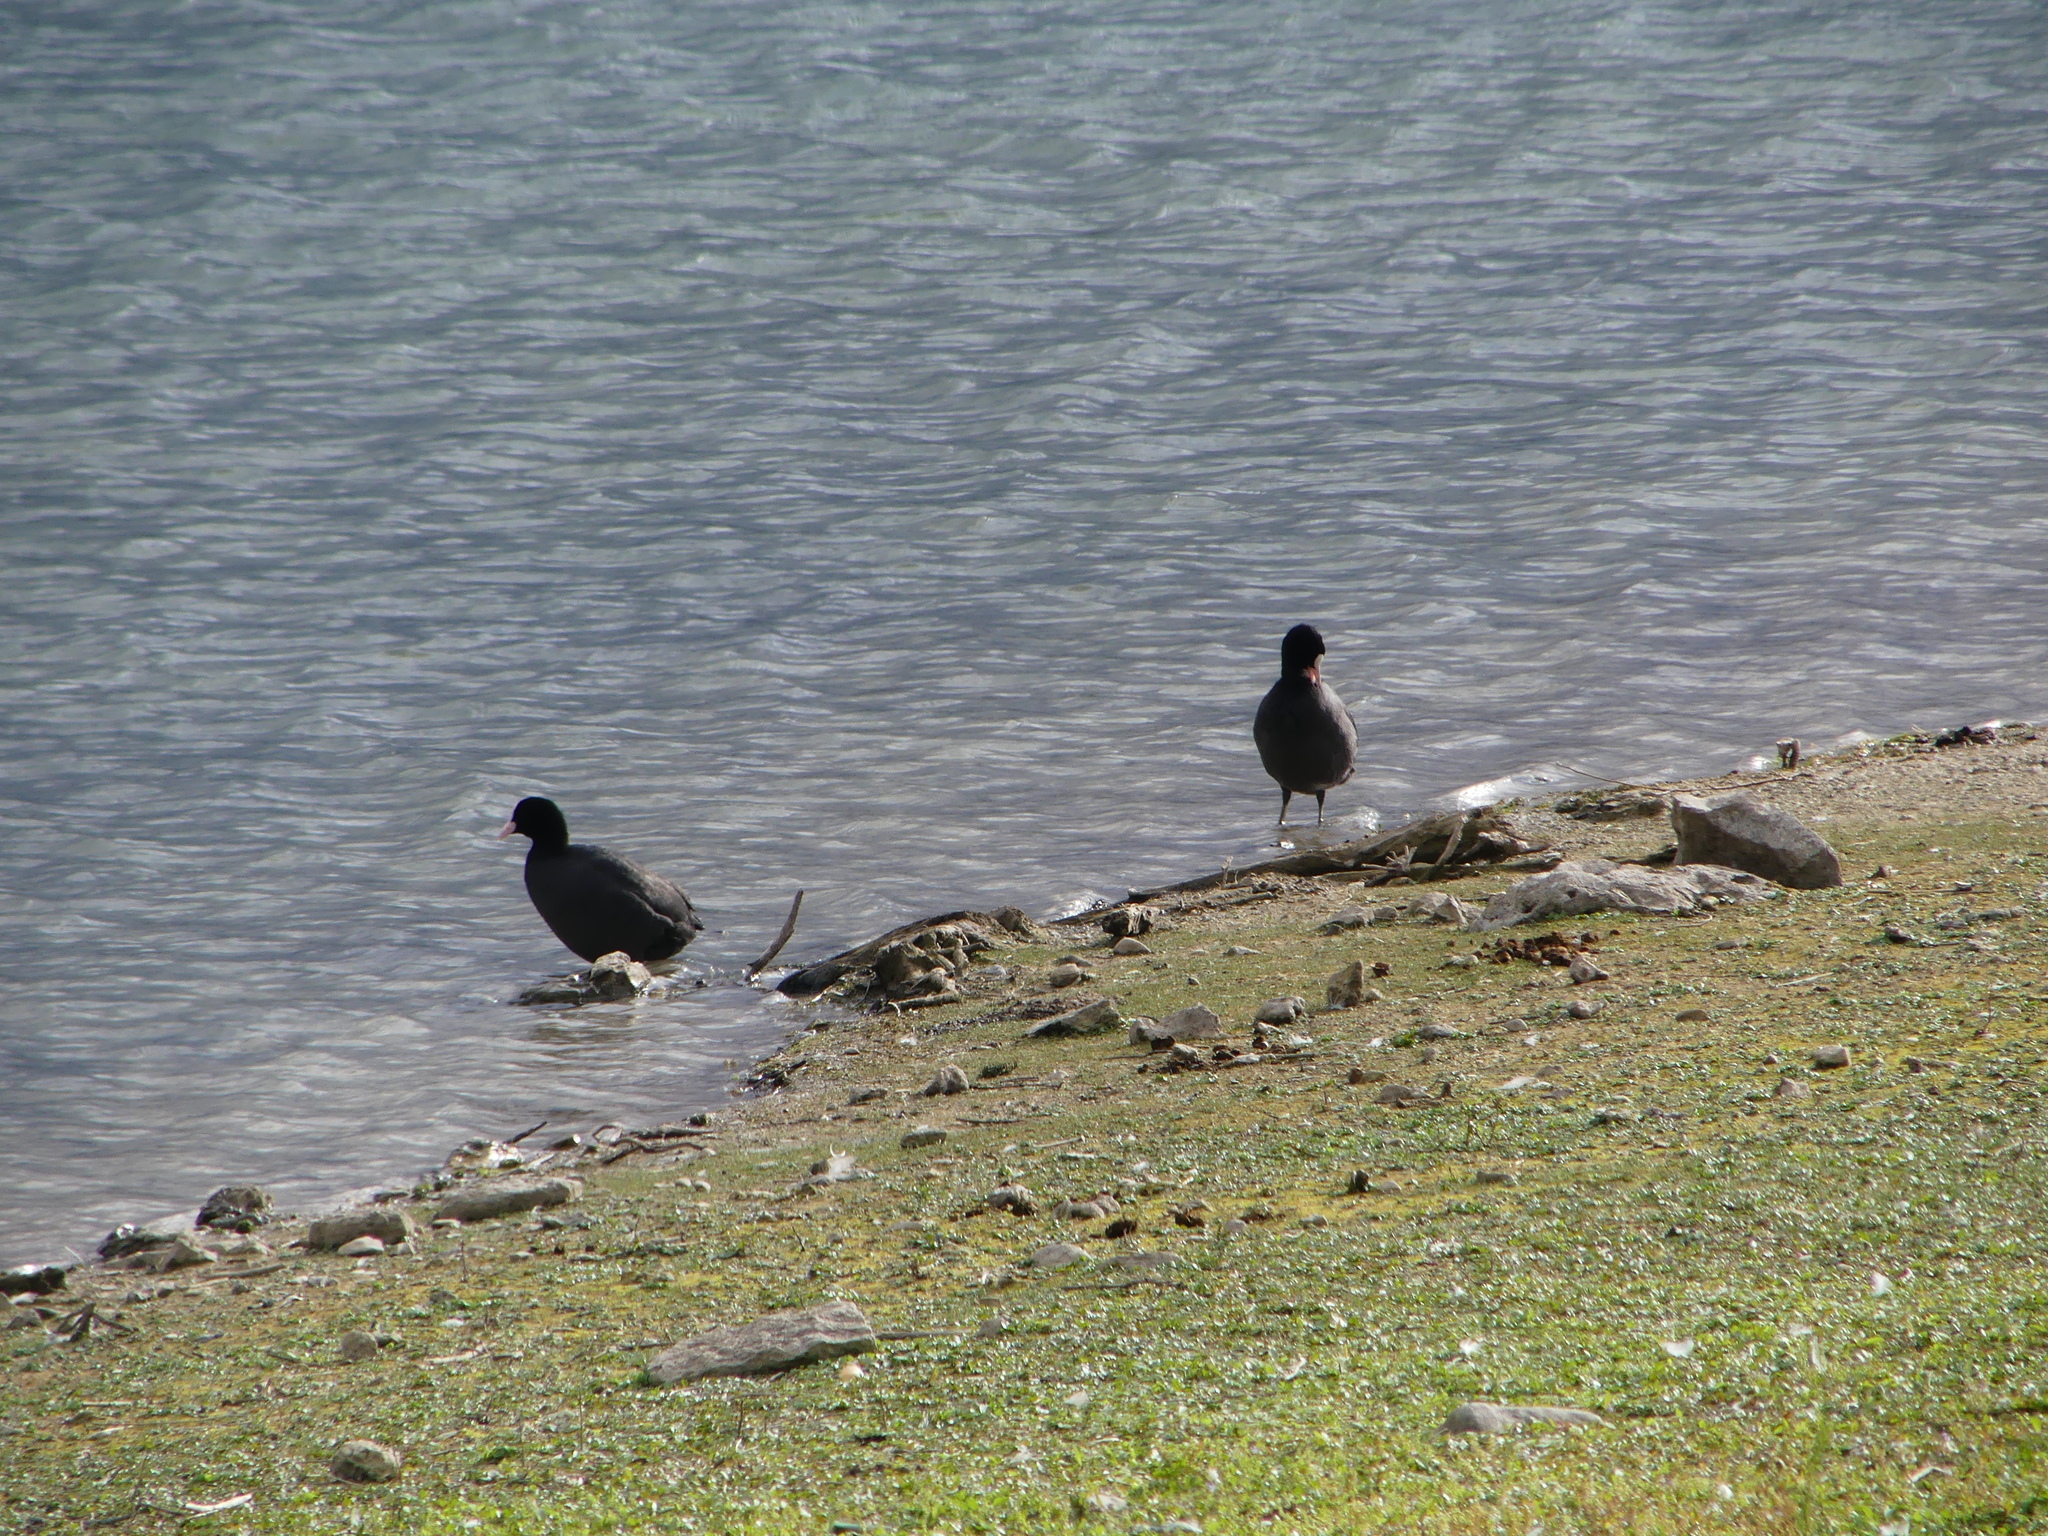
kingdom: Animalia
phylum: Chordata
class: Aves
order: Gruiformes
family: Rallidae
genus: Fulica
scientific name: Fulica atra
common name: Eurasian coot
